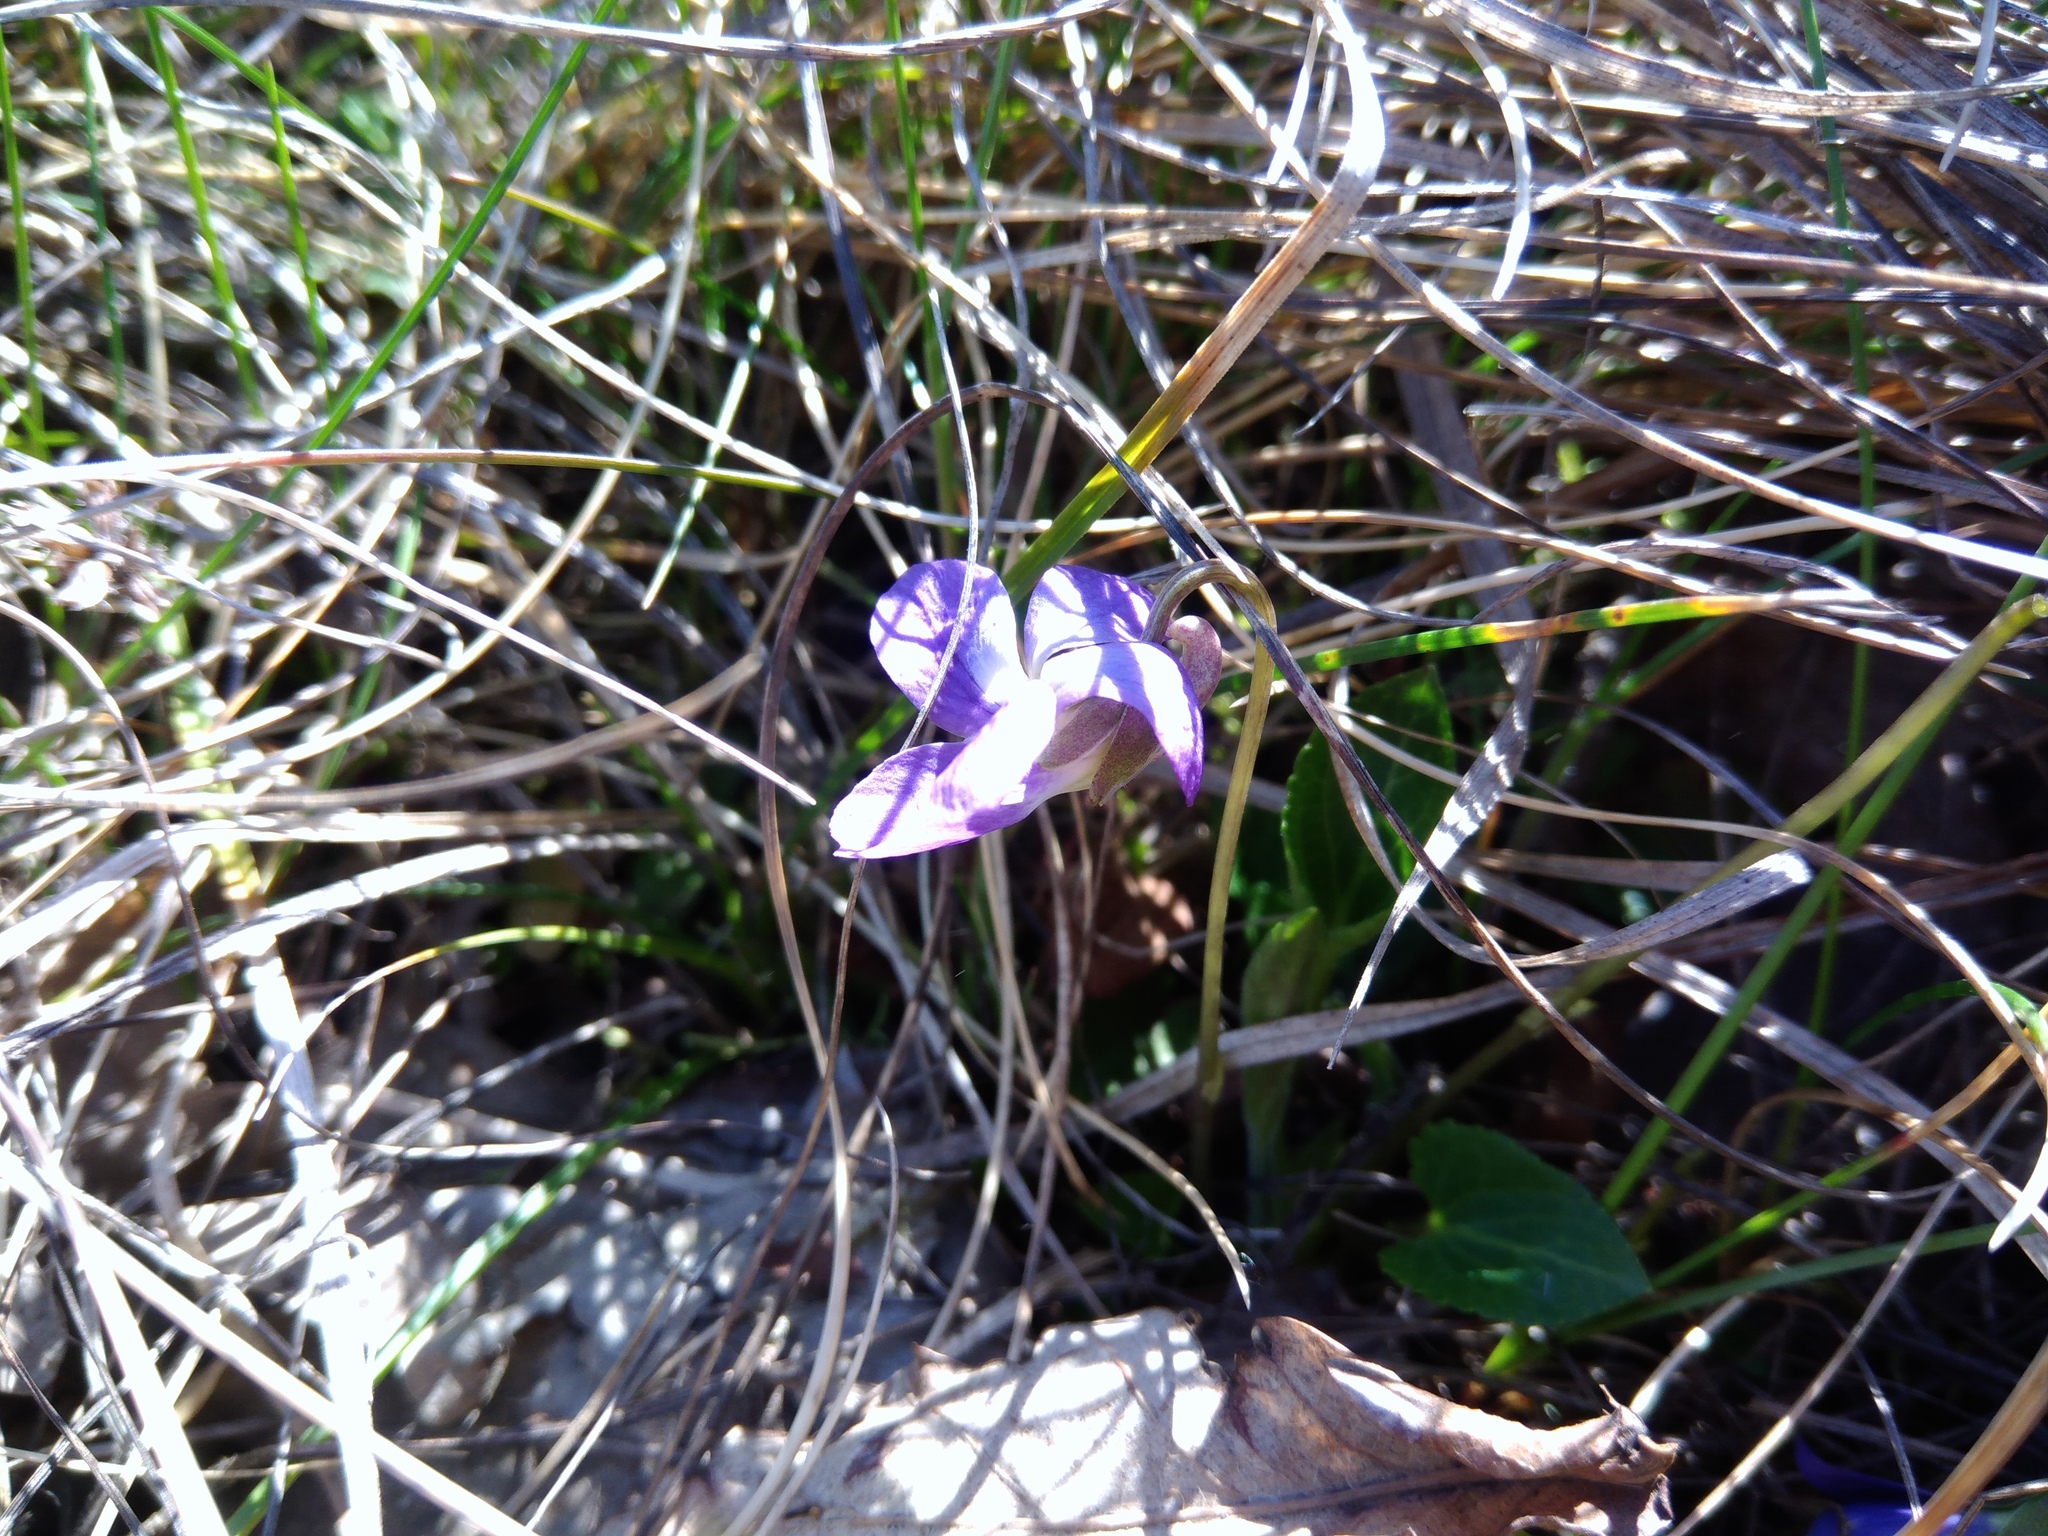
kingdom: Plantae
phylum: Tracheophyta
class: Magnoliopsida
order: Malpighiales
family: Violaceae
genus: Viola
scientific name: Viola ambigua
